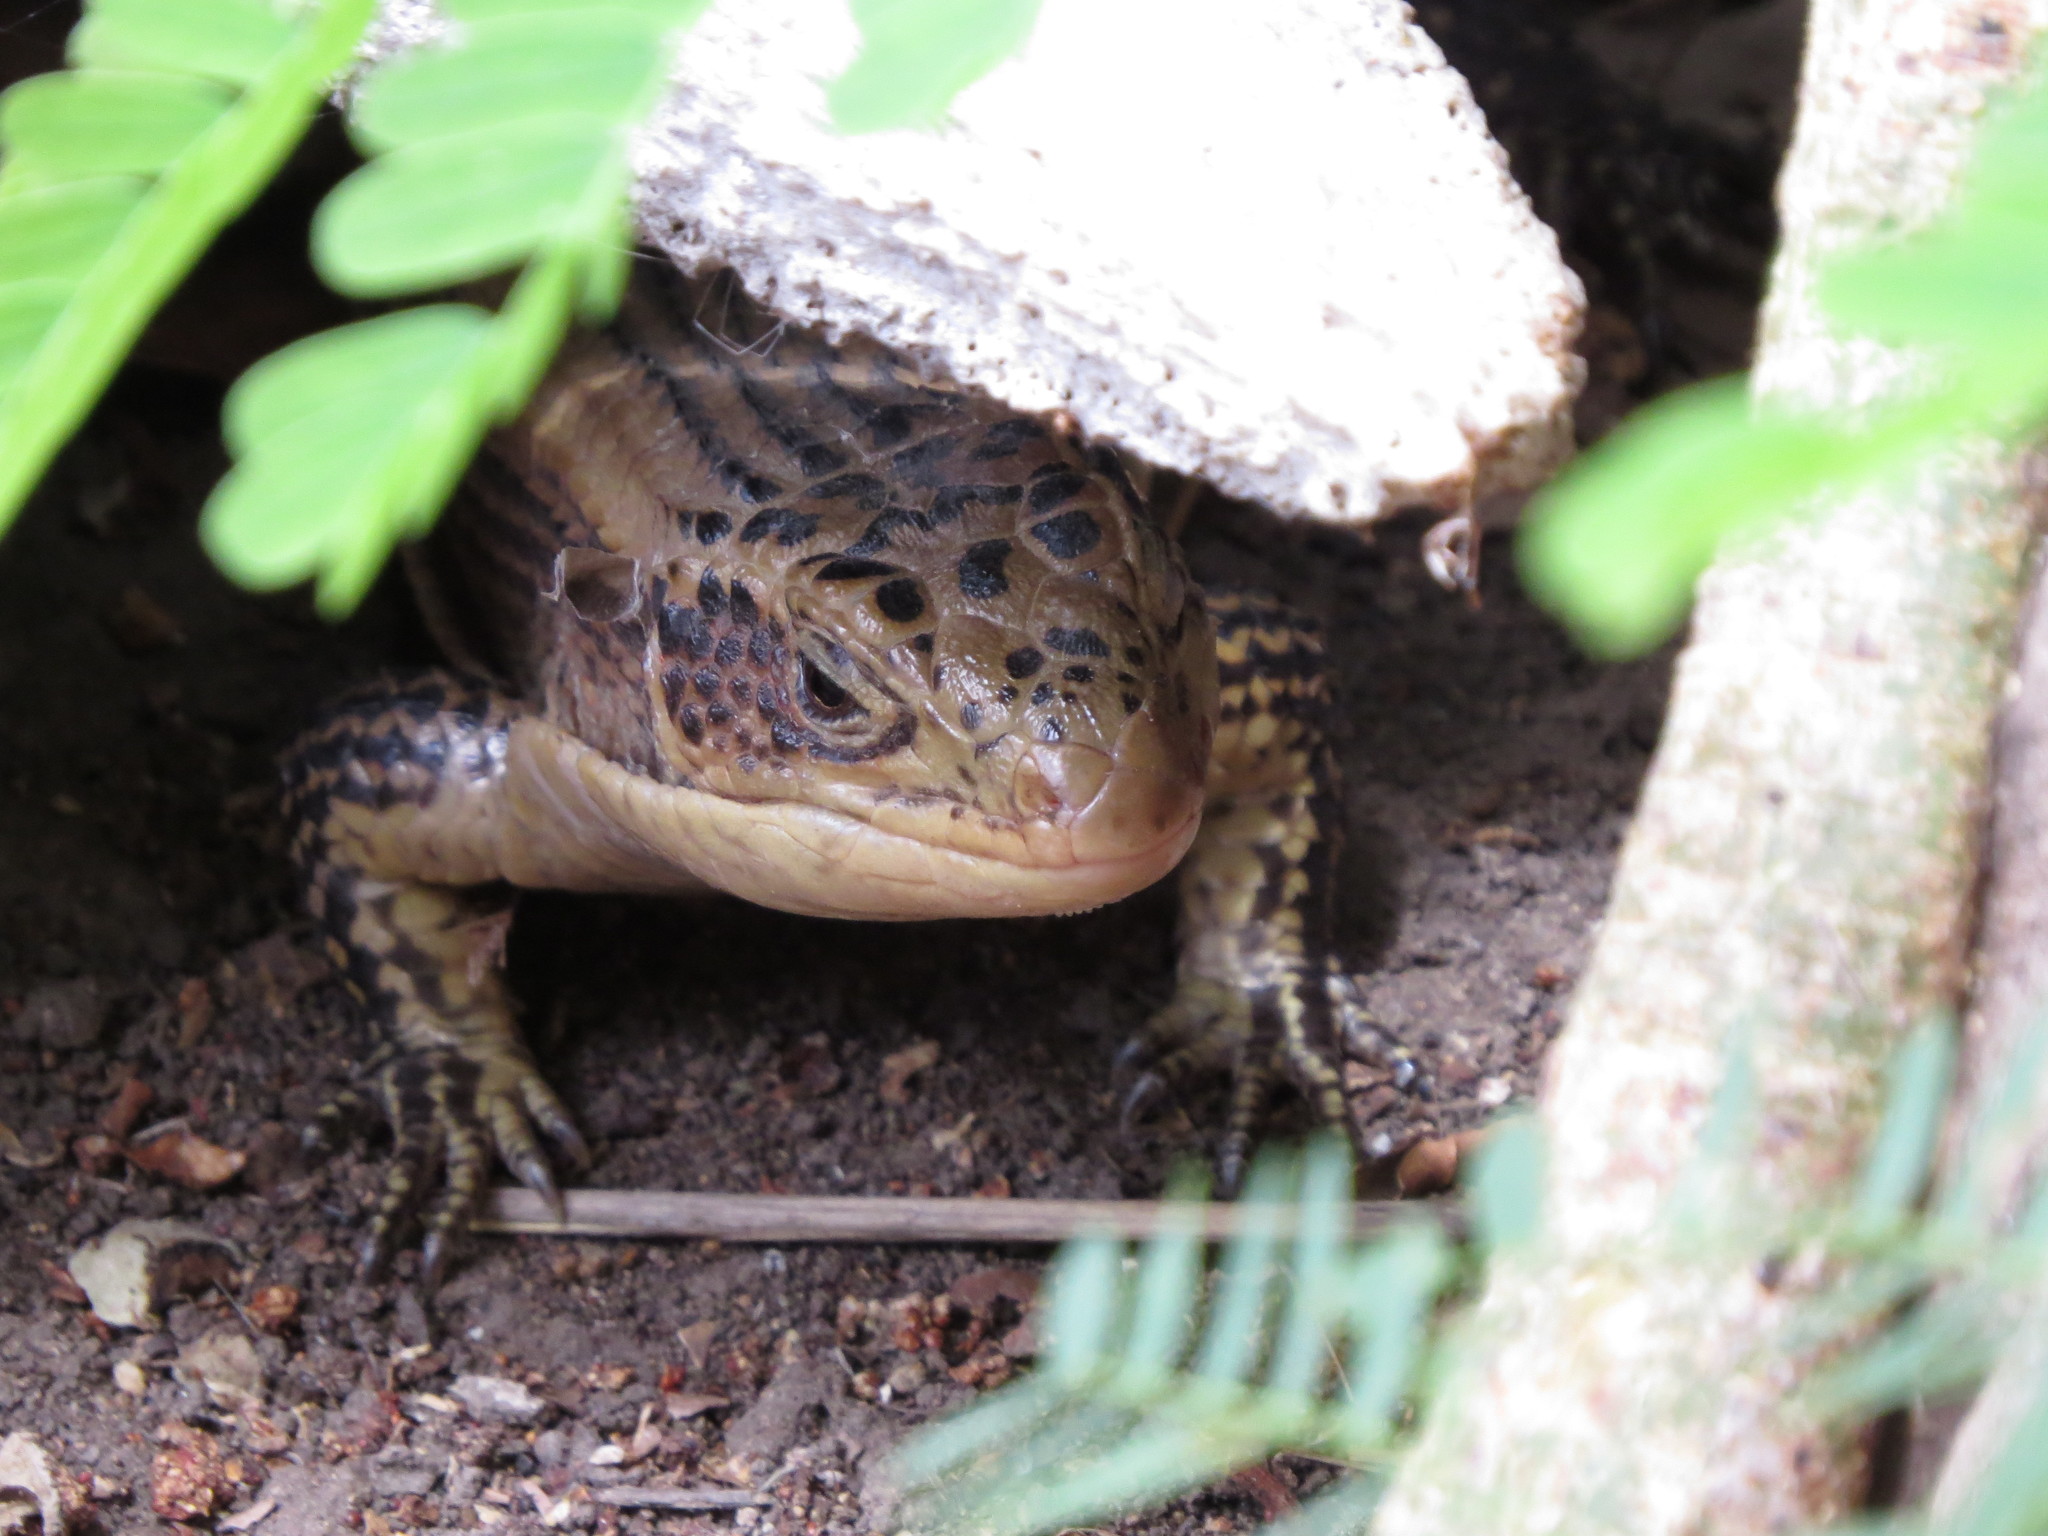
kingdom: Animalia
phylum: Chordata
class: Squamata
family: Gerrhosauridae
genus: Broadleysaurus
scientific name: Broadleysaurus major
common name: Rough-scaled plated lizard
